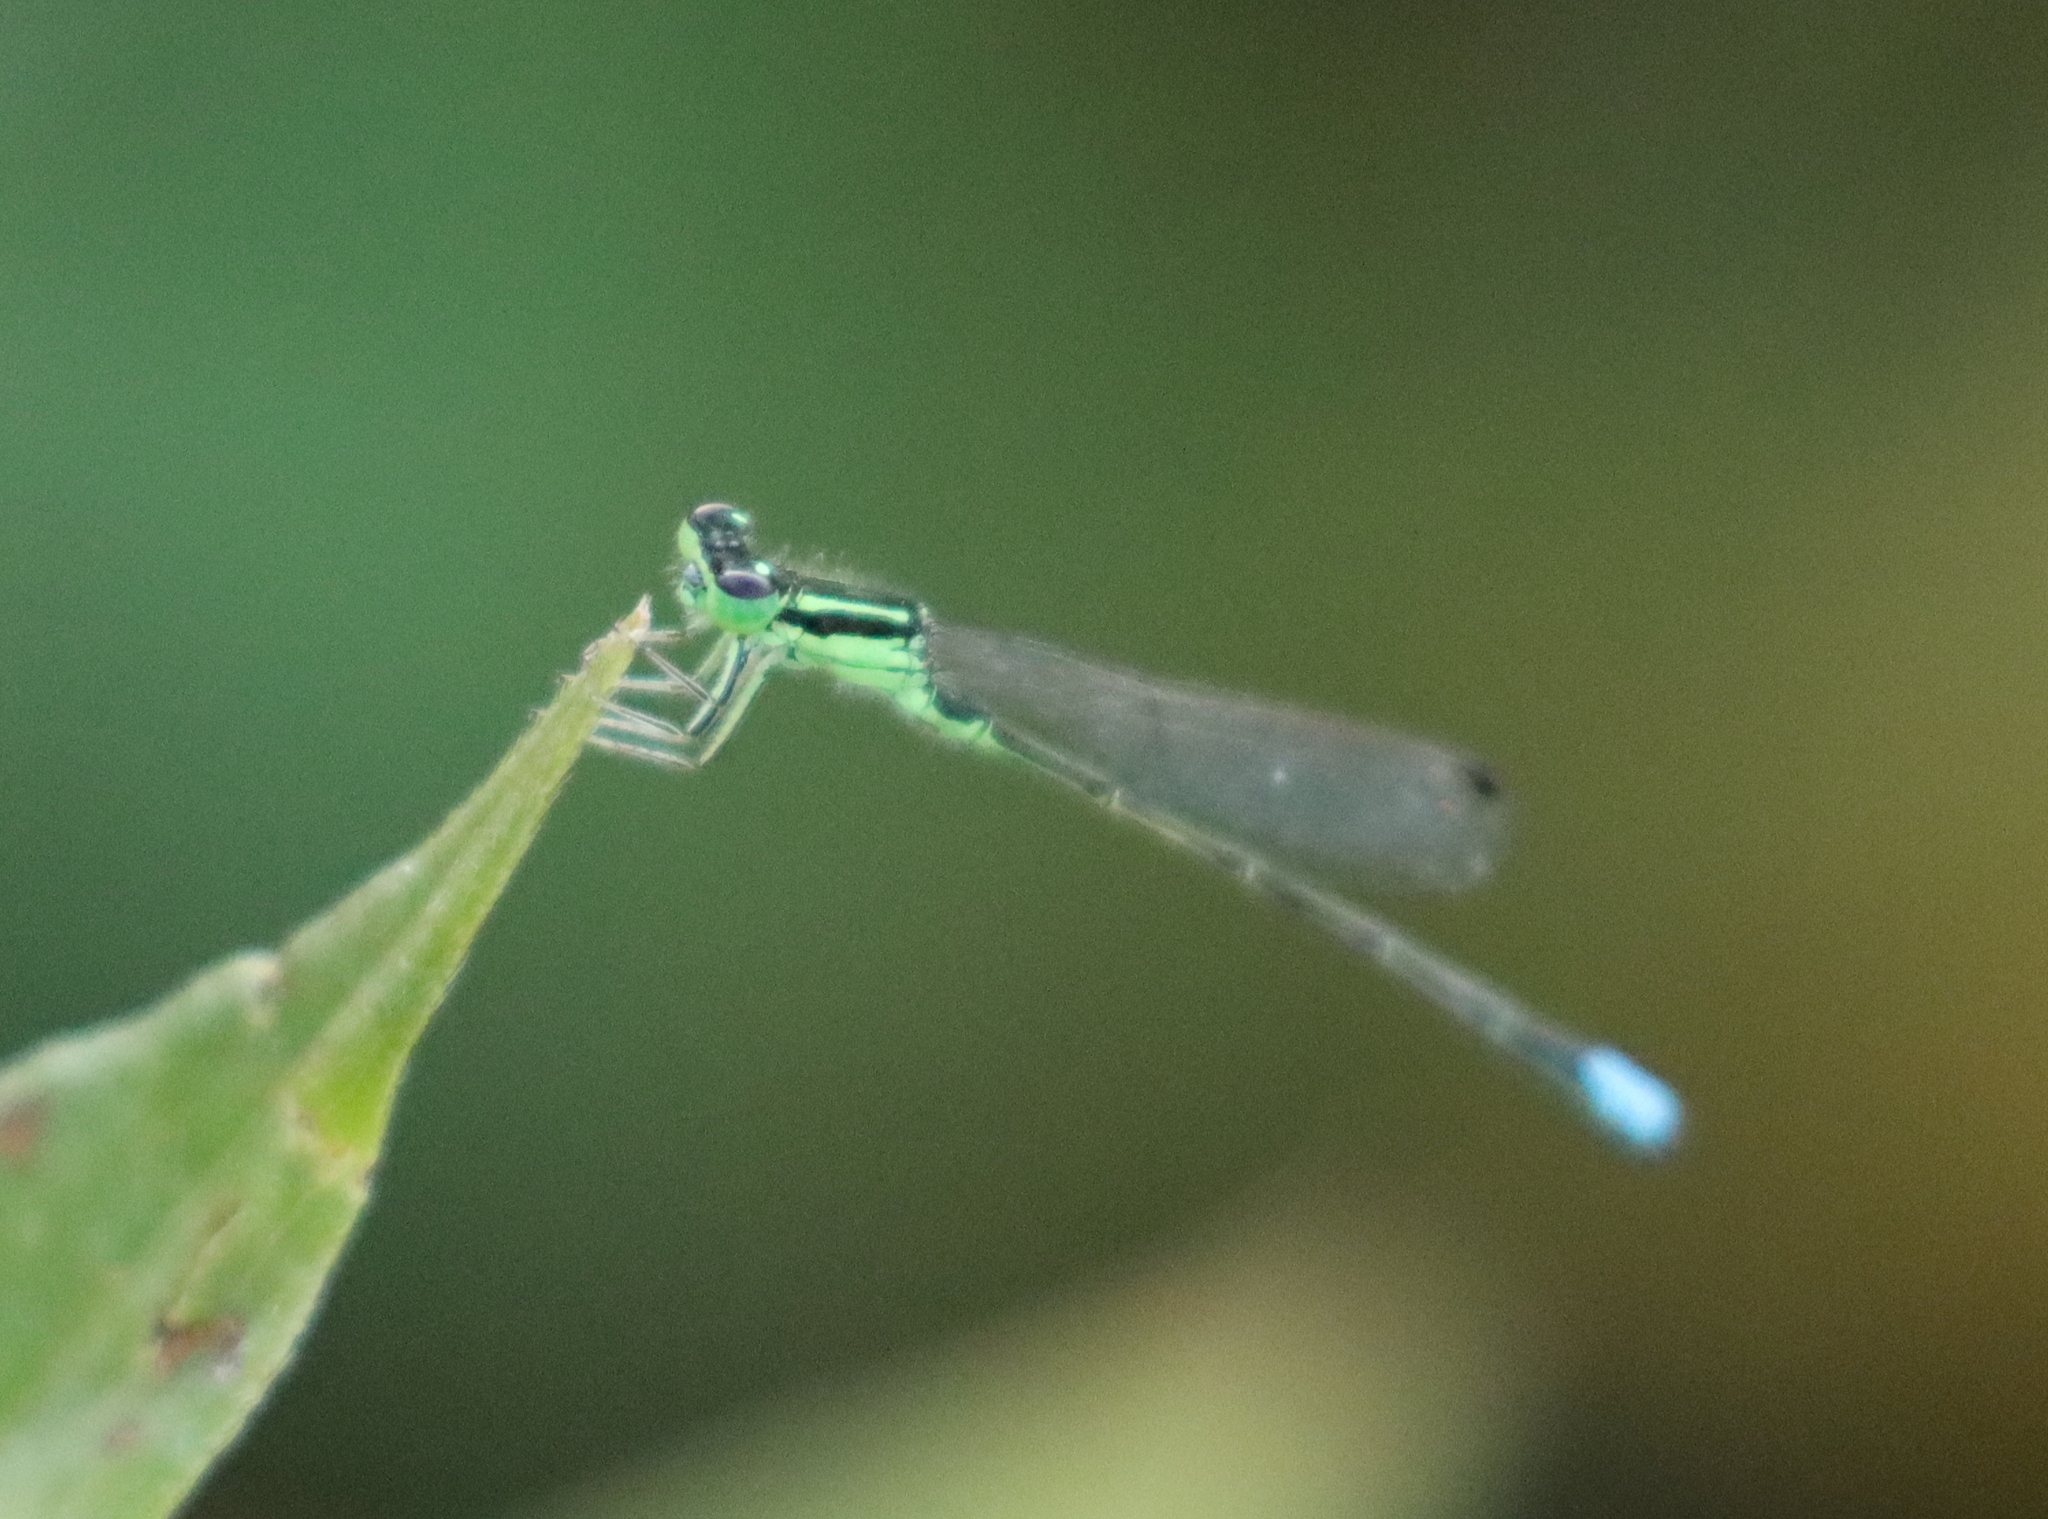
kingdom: Animalia
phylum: Arthropoda
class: Insecta
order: Odonata
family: Coenagrionidae
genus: Ischnura
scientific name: Ischnura verticalis
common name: Eastern forktail
